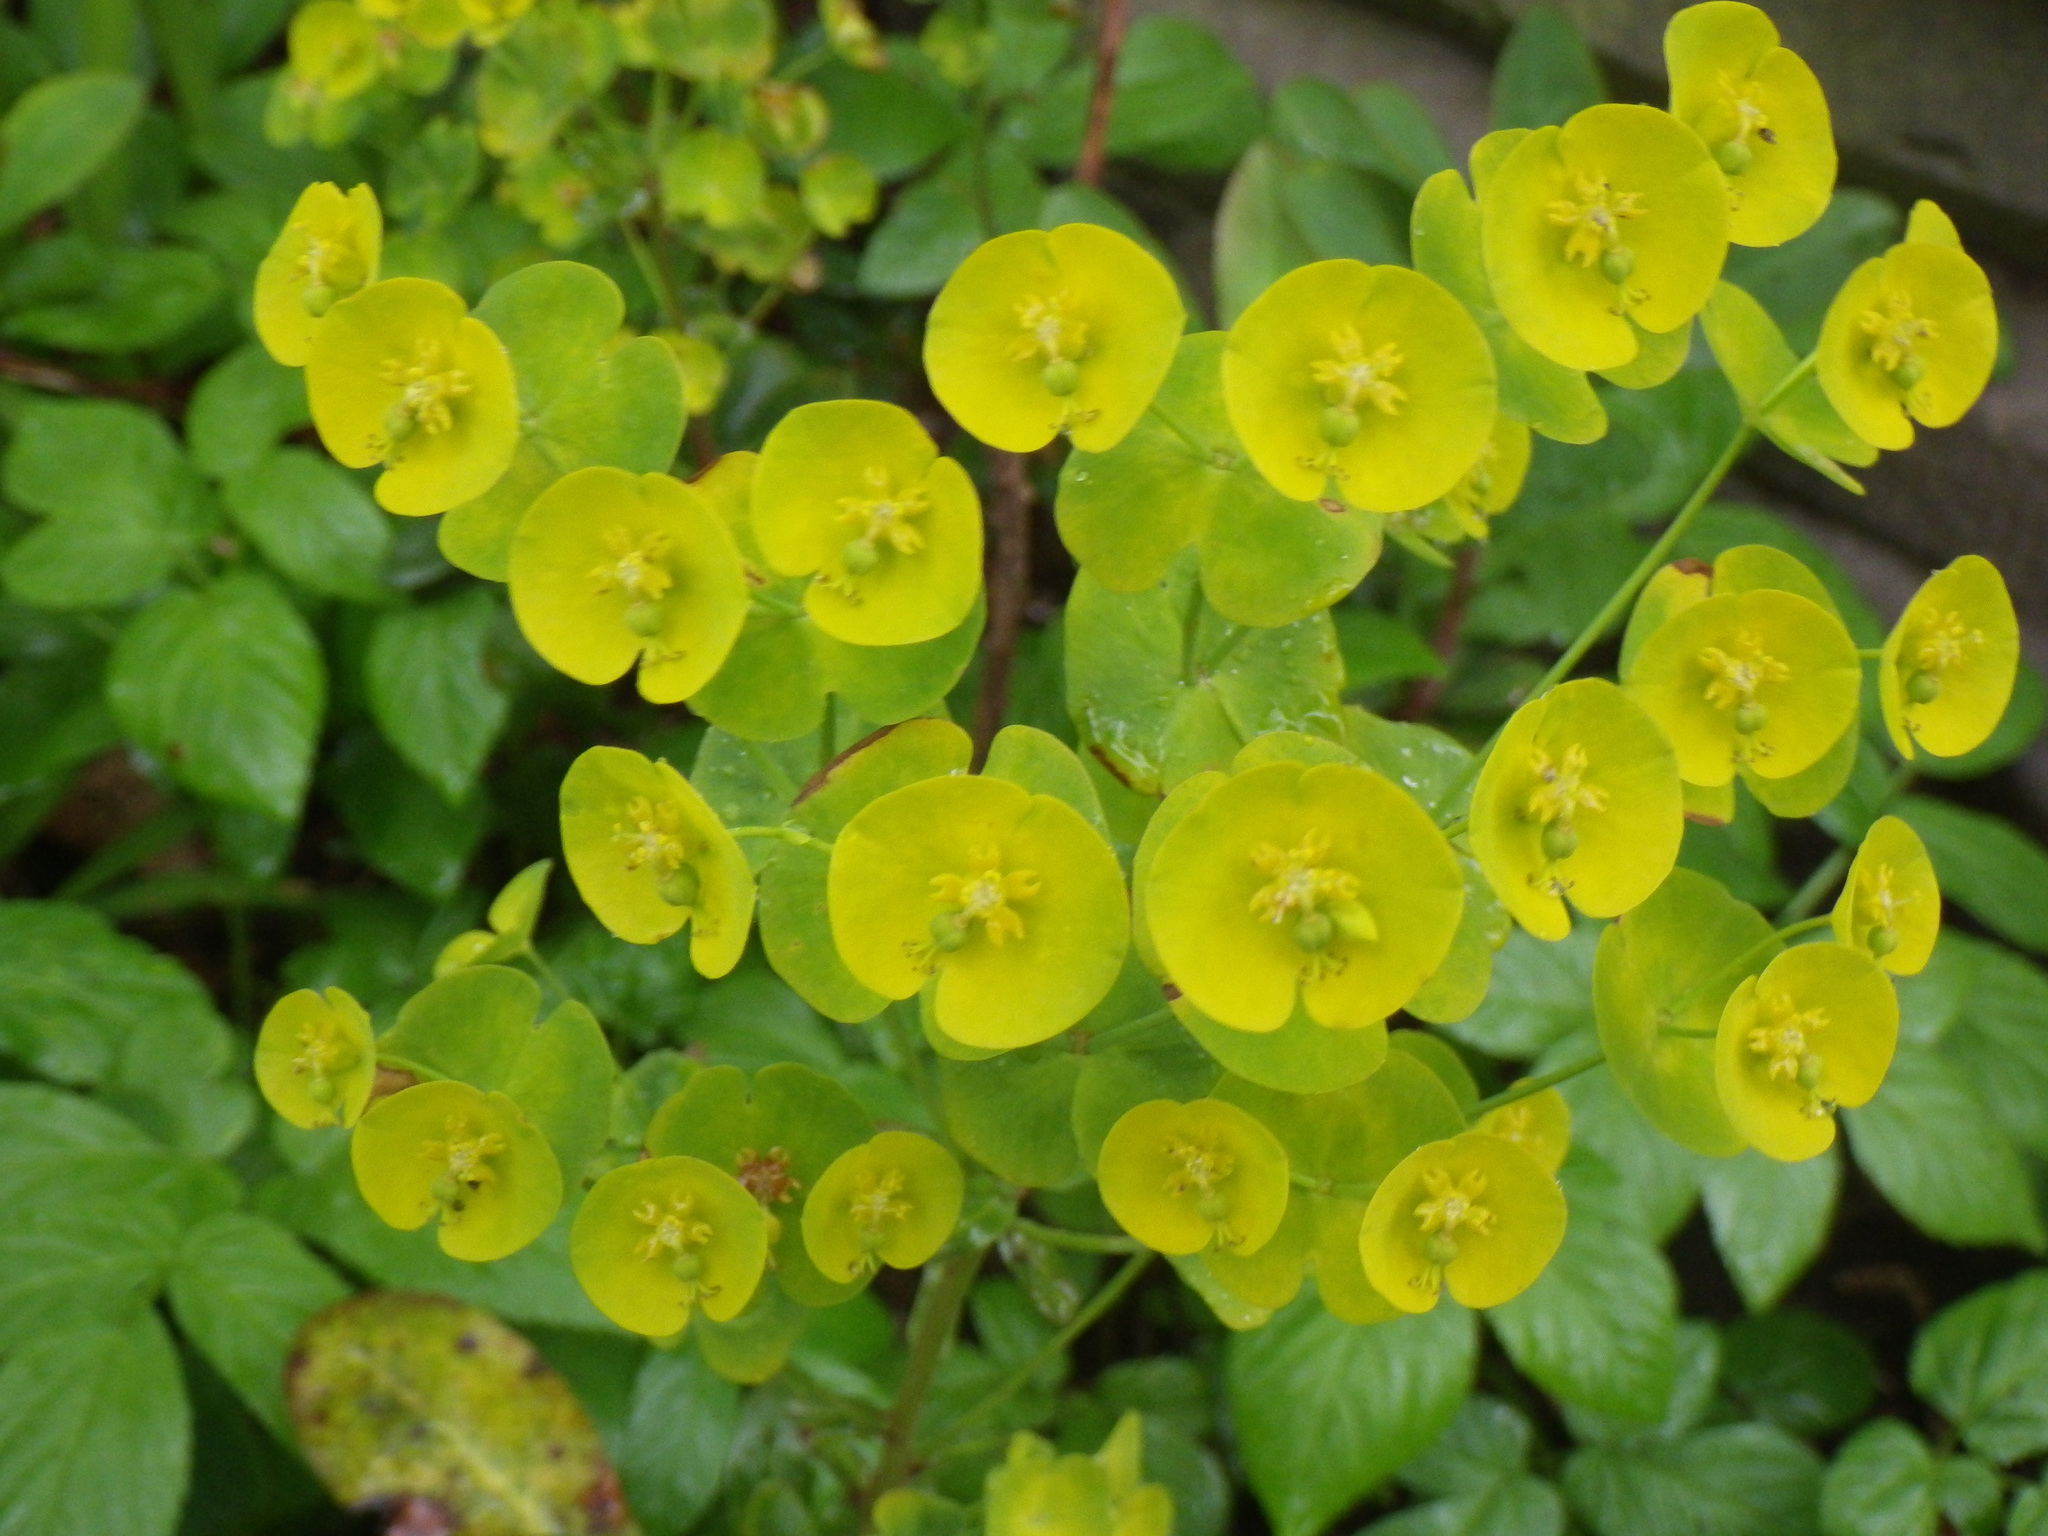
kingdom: Plantae
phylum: Tracheophyta
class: Magnoliopsida
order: Malpighiales
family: Euphorbiaceae
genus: Euphorbia
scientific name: Euphorbia amygdaloides
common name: Wood spurge
